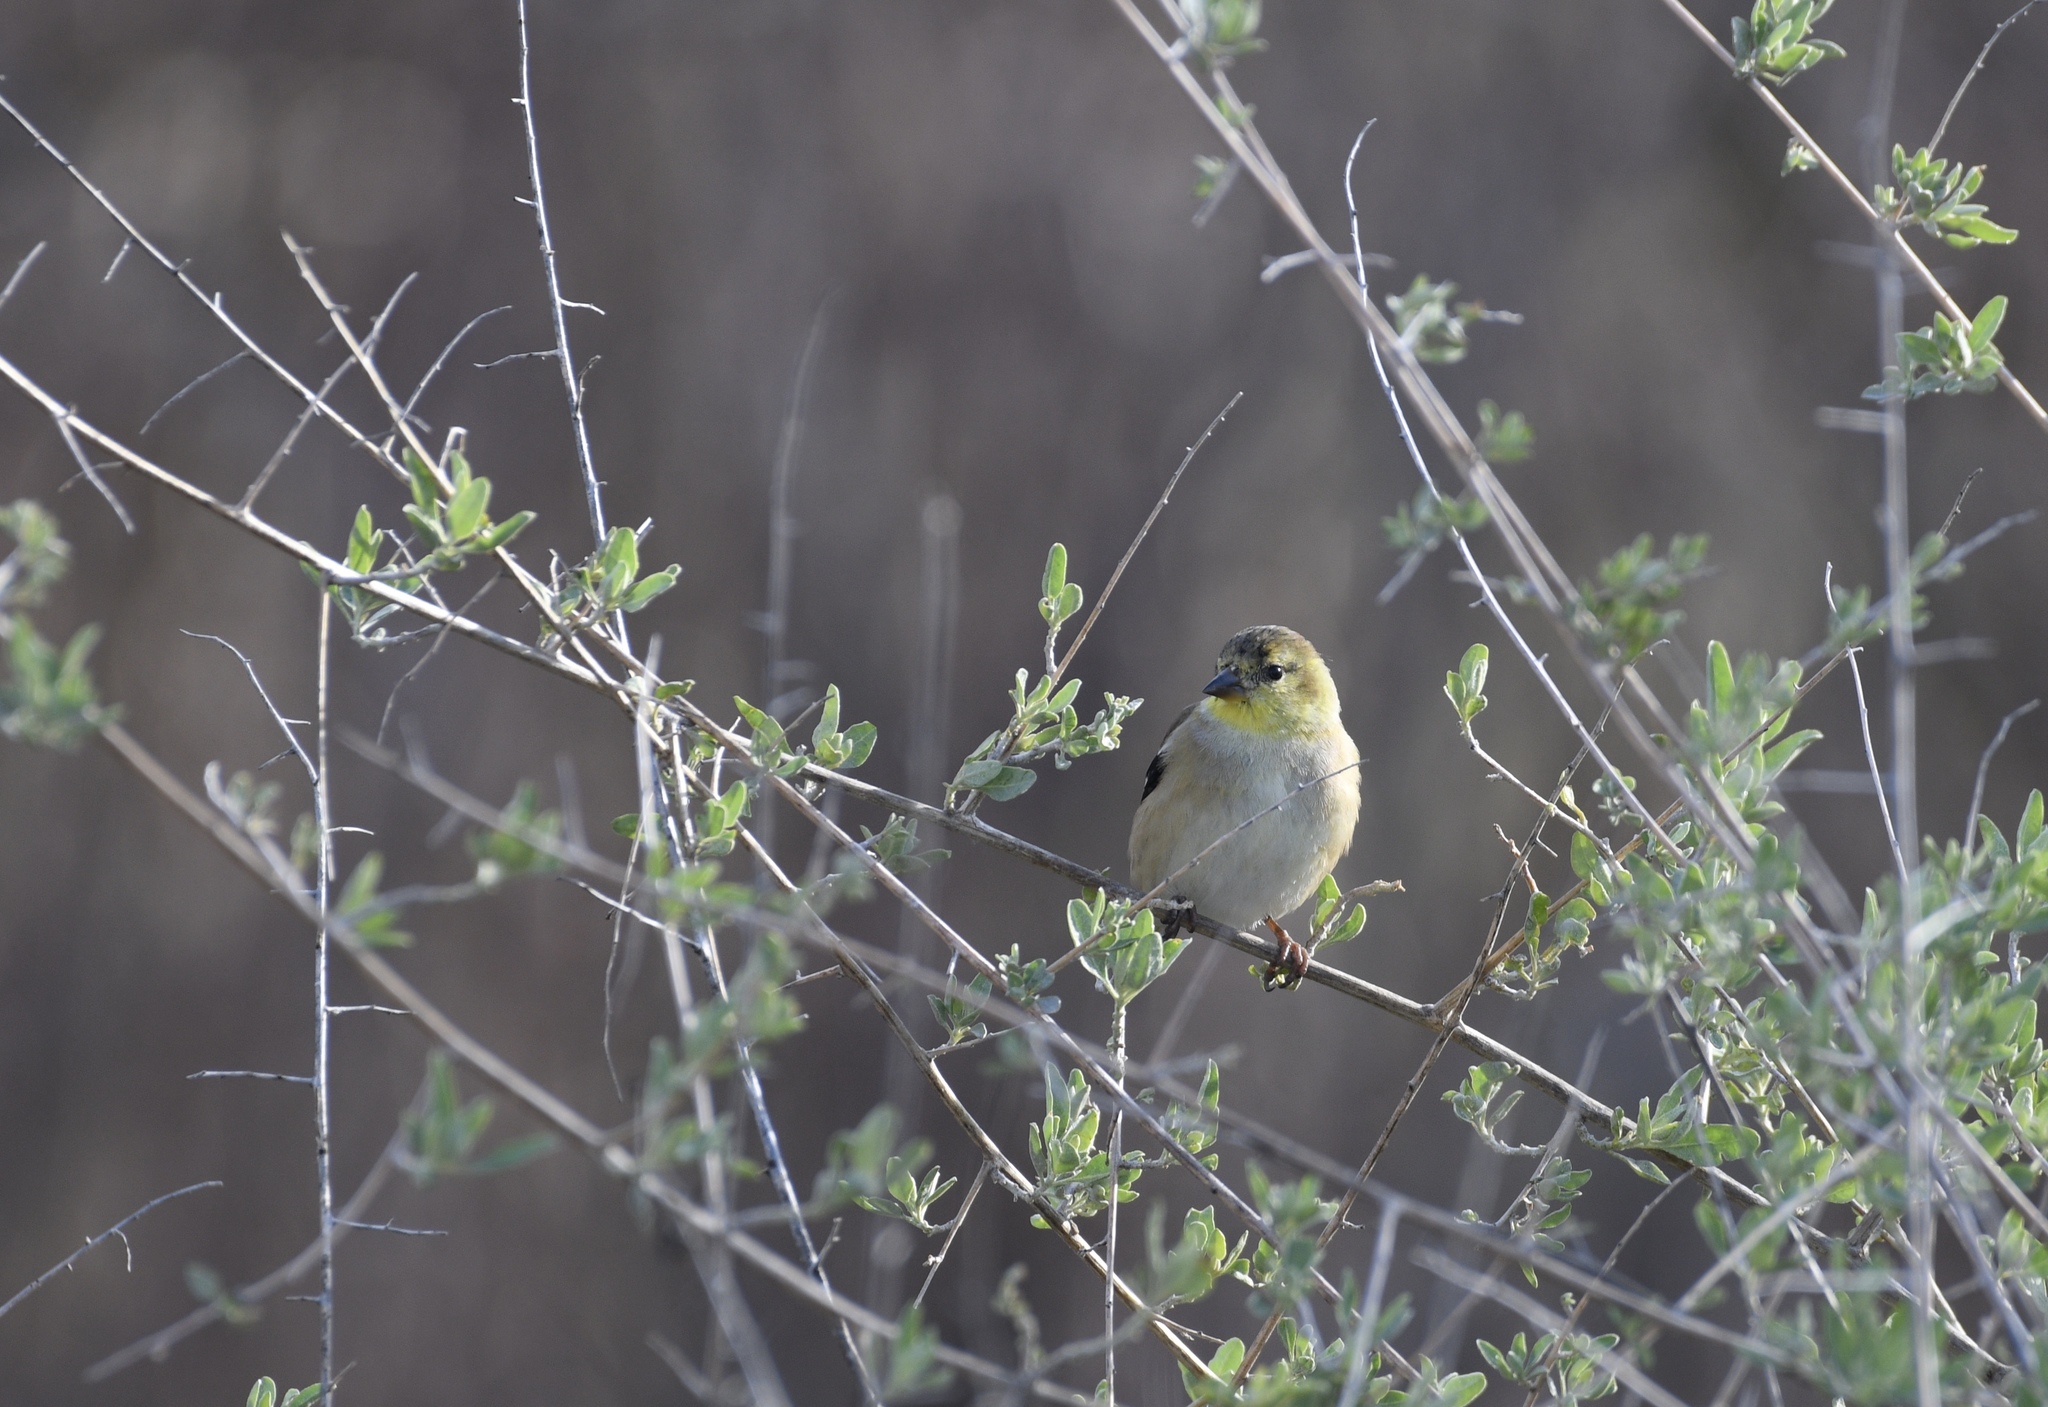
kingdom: Animalia
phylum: Chordata
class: Aves
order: Passeriformes
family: Fringillidae
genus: Spinus
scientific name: Spinus tristis
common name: American goldfinch
